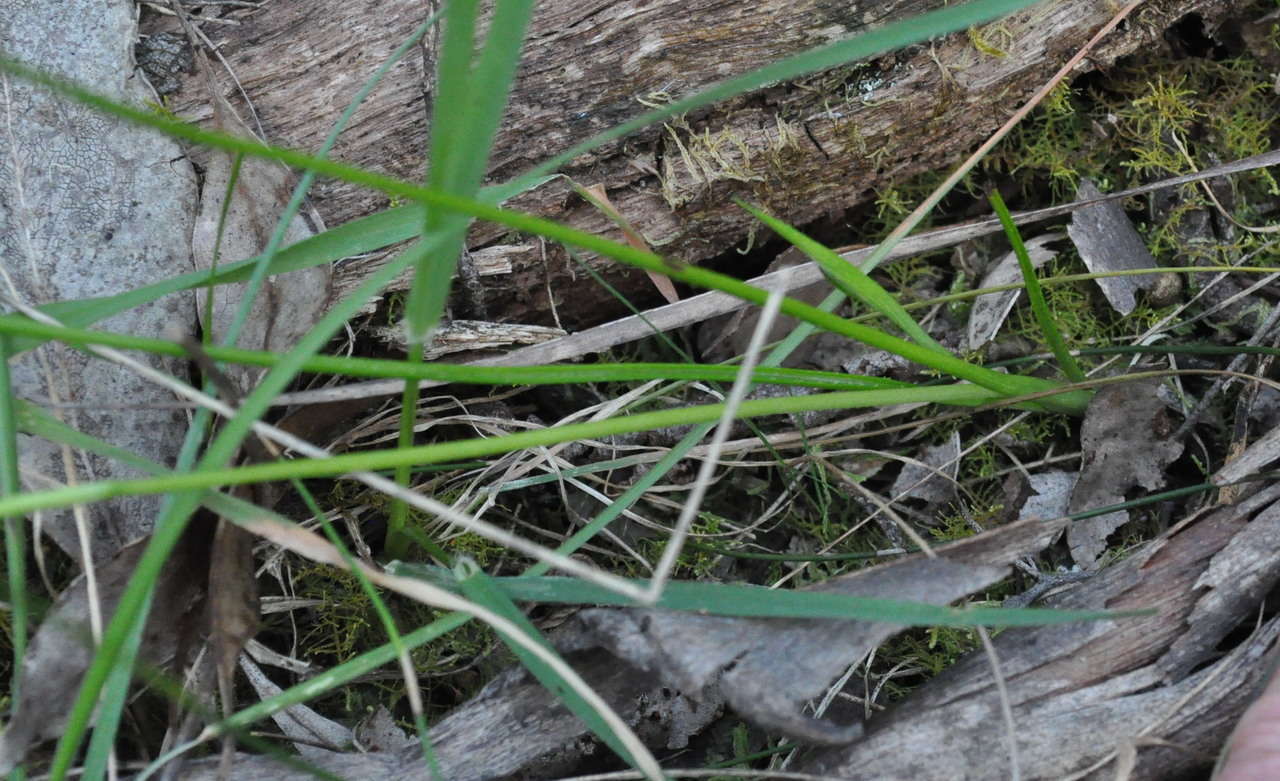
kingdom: Plantae
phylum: Tracheophyta
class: Liliopsida
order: Asparagales
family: Hypoxidaceae
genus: Pauridia
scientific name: Pauridia vaginata
